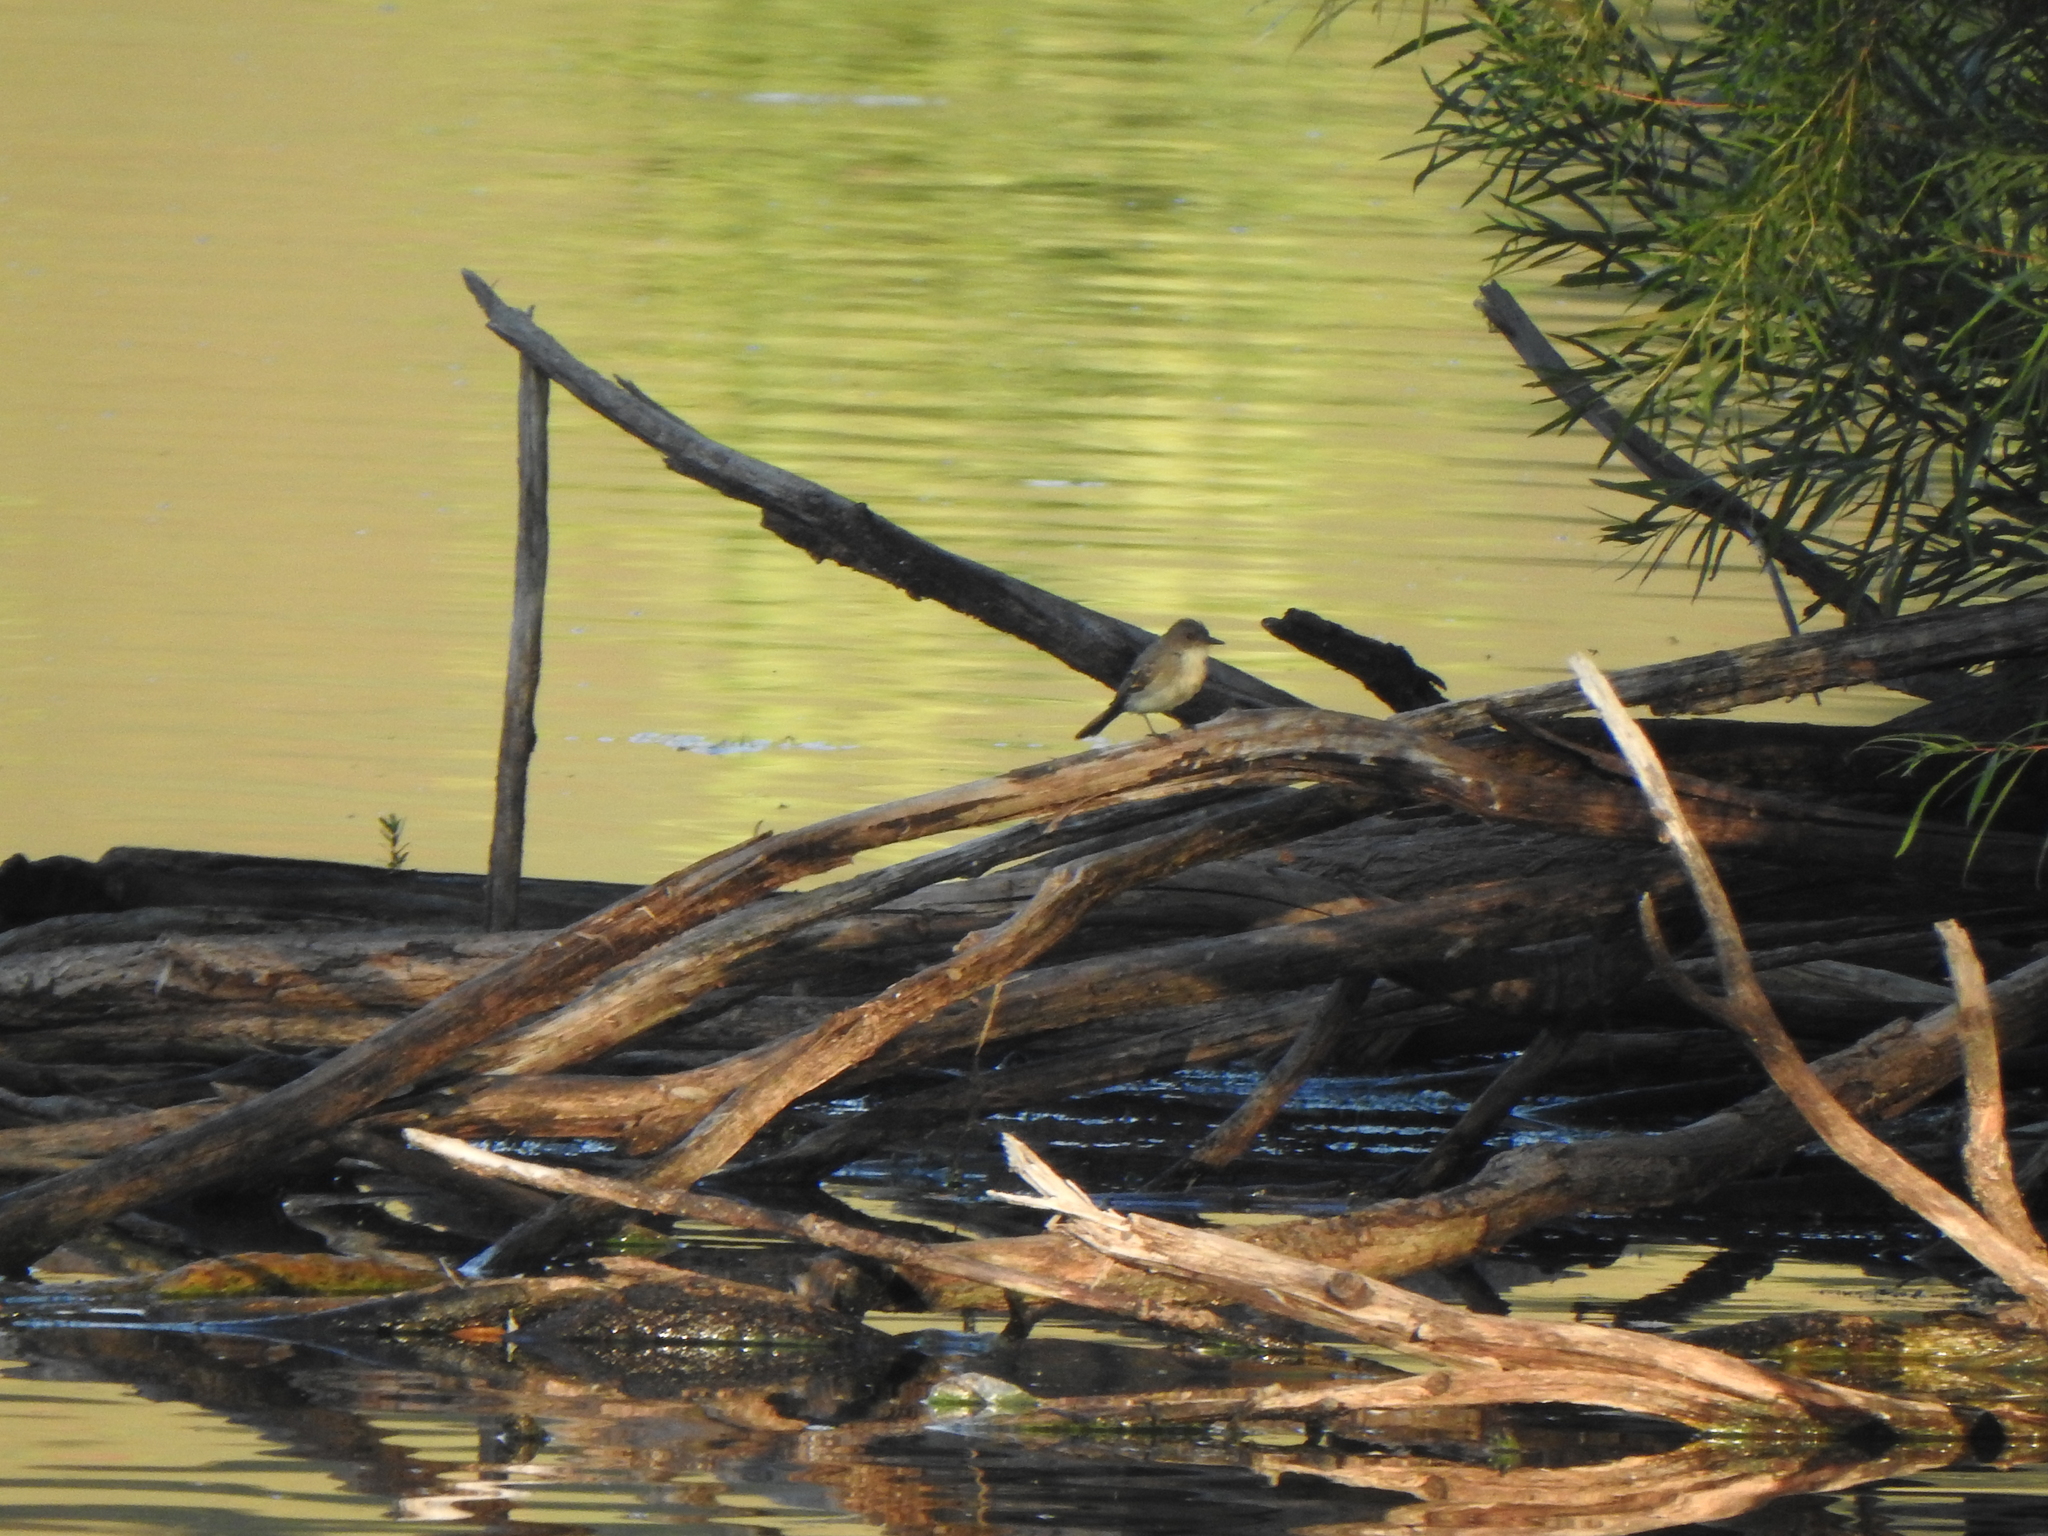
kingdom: Animalia
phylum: Chordata
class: Aves
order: Passeriformes
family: Tyrannidae
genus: Sayornis
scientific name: Sayornis phoebe
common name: Eastern phoebe
